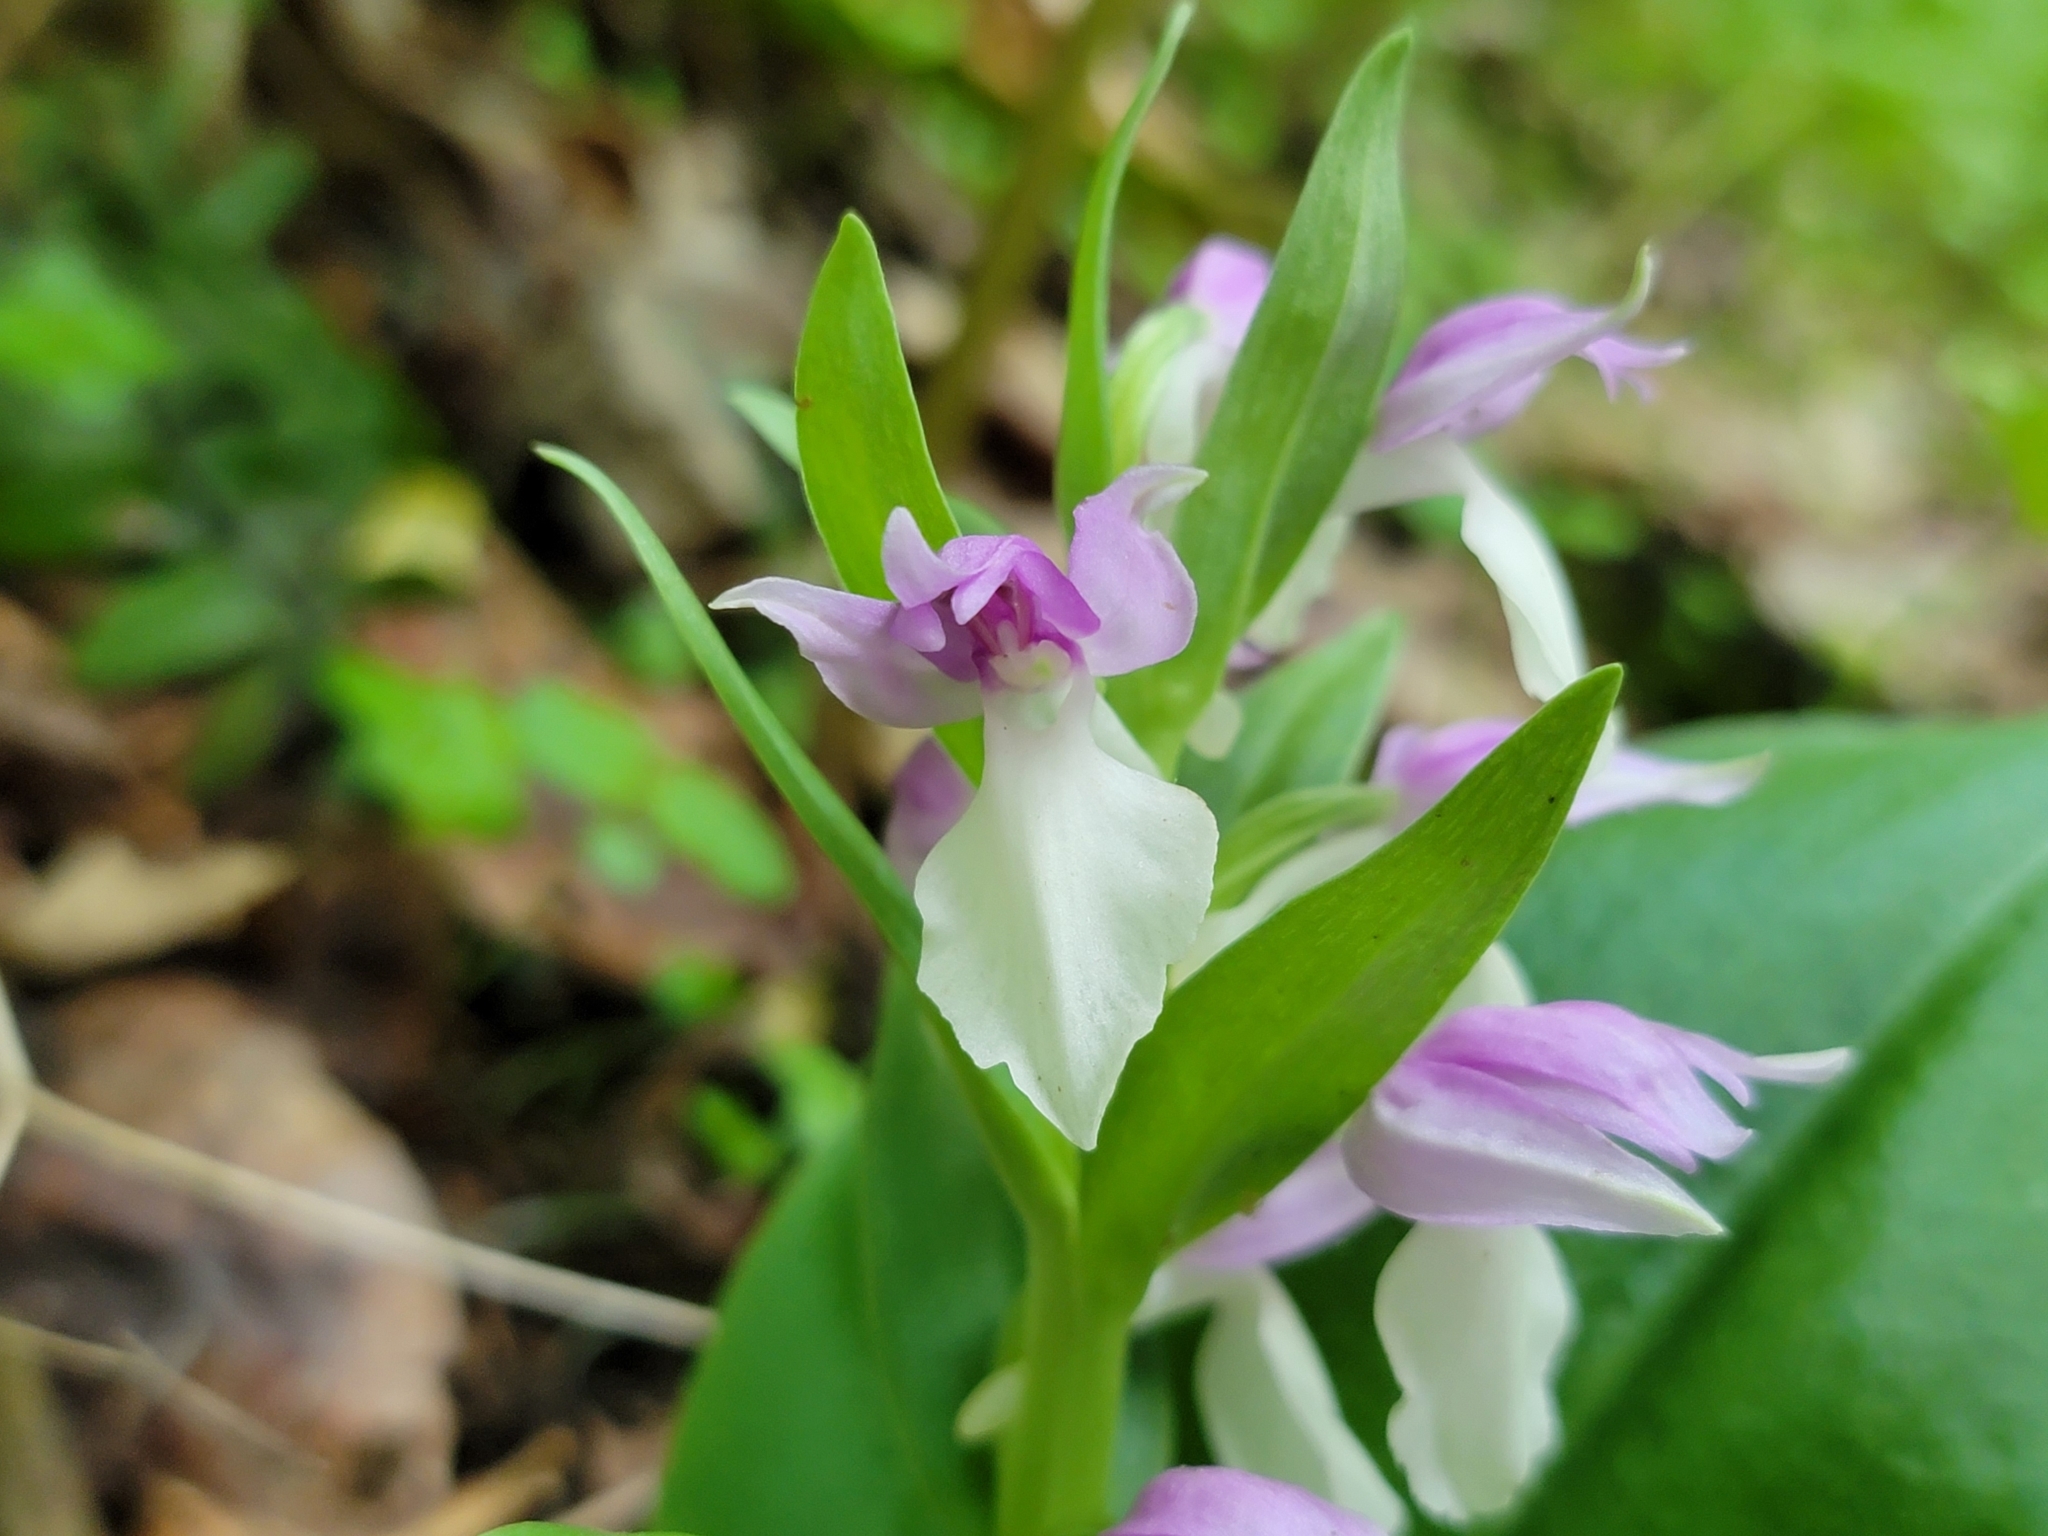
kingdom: Plantae
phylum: Tracheophyta
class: Liliopsida
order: Asparagales
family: Orchidaceae
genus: Galearis
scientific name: Galearis spectabilis
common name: Purple-hooded orchis
